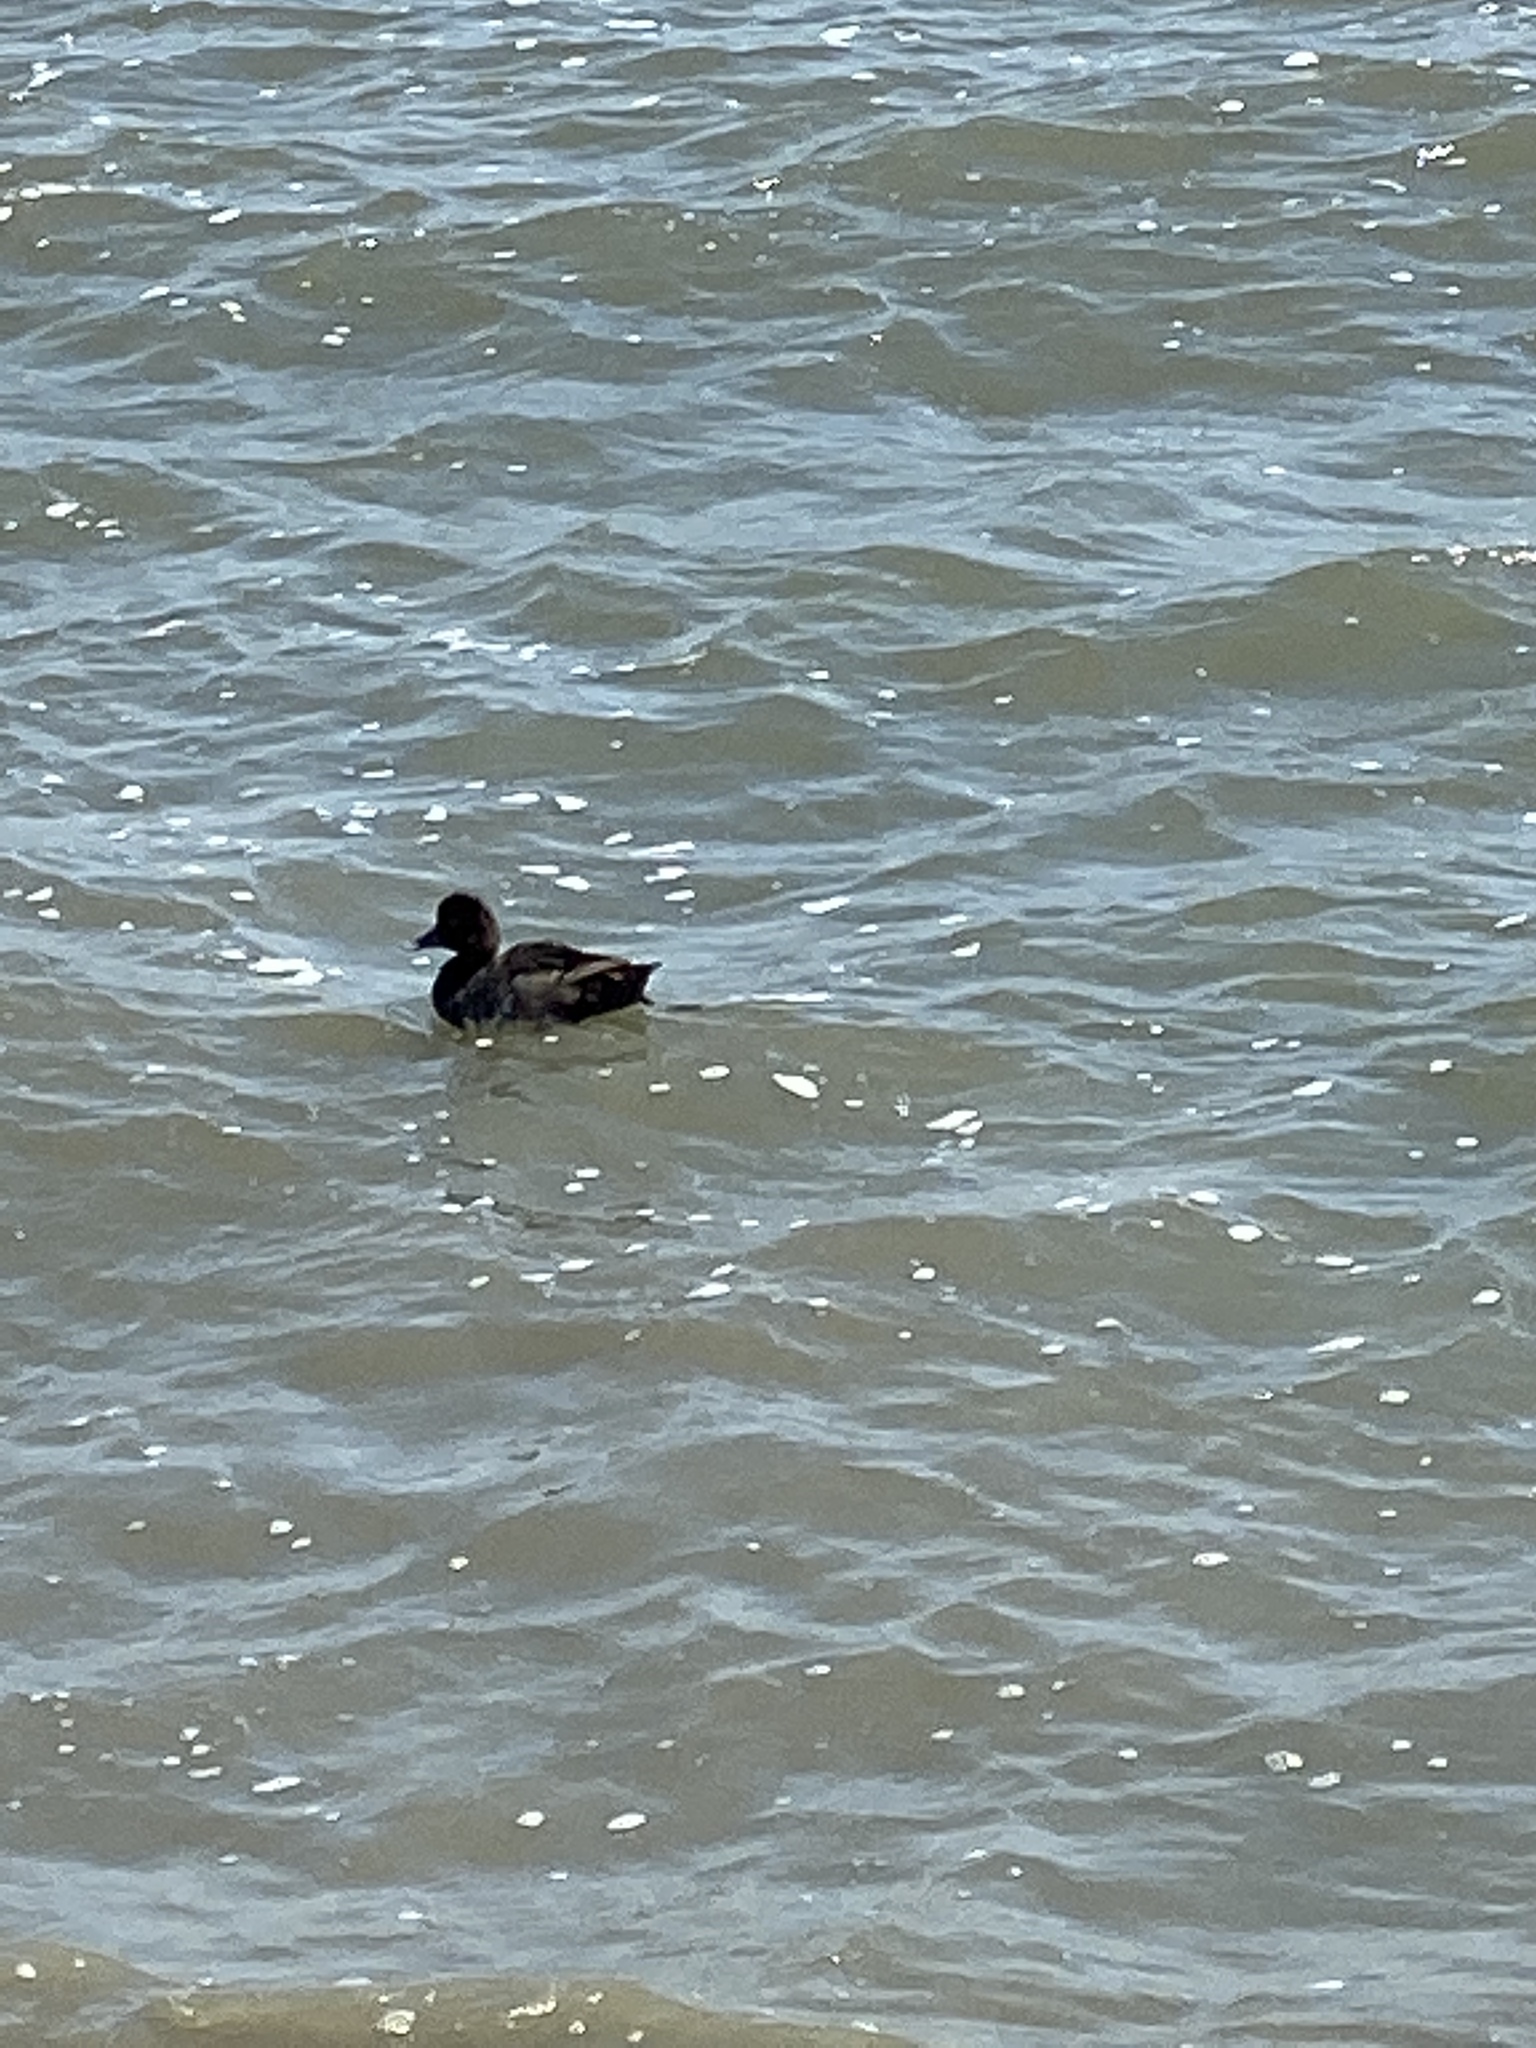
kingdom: Animalia
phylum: Chordata
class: Aves
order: Anseriformes
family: Anatidae
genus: Aythya
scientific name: Aythya affinis
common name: Lesser scaup
